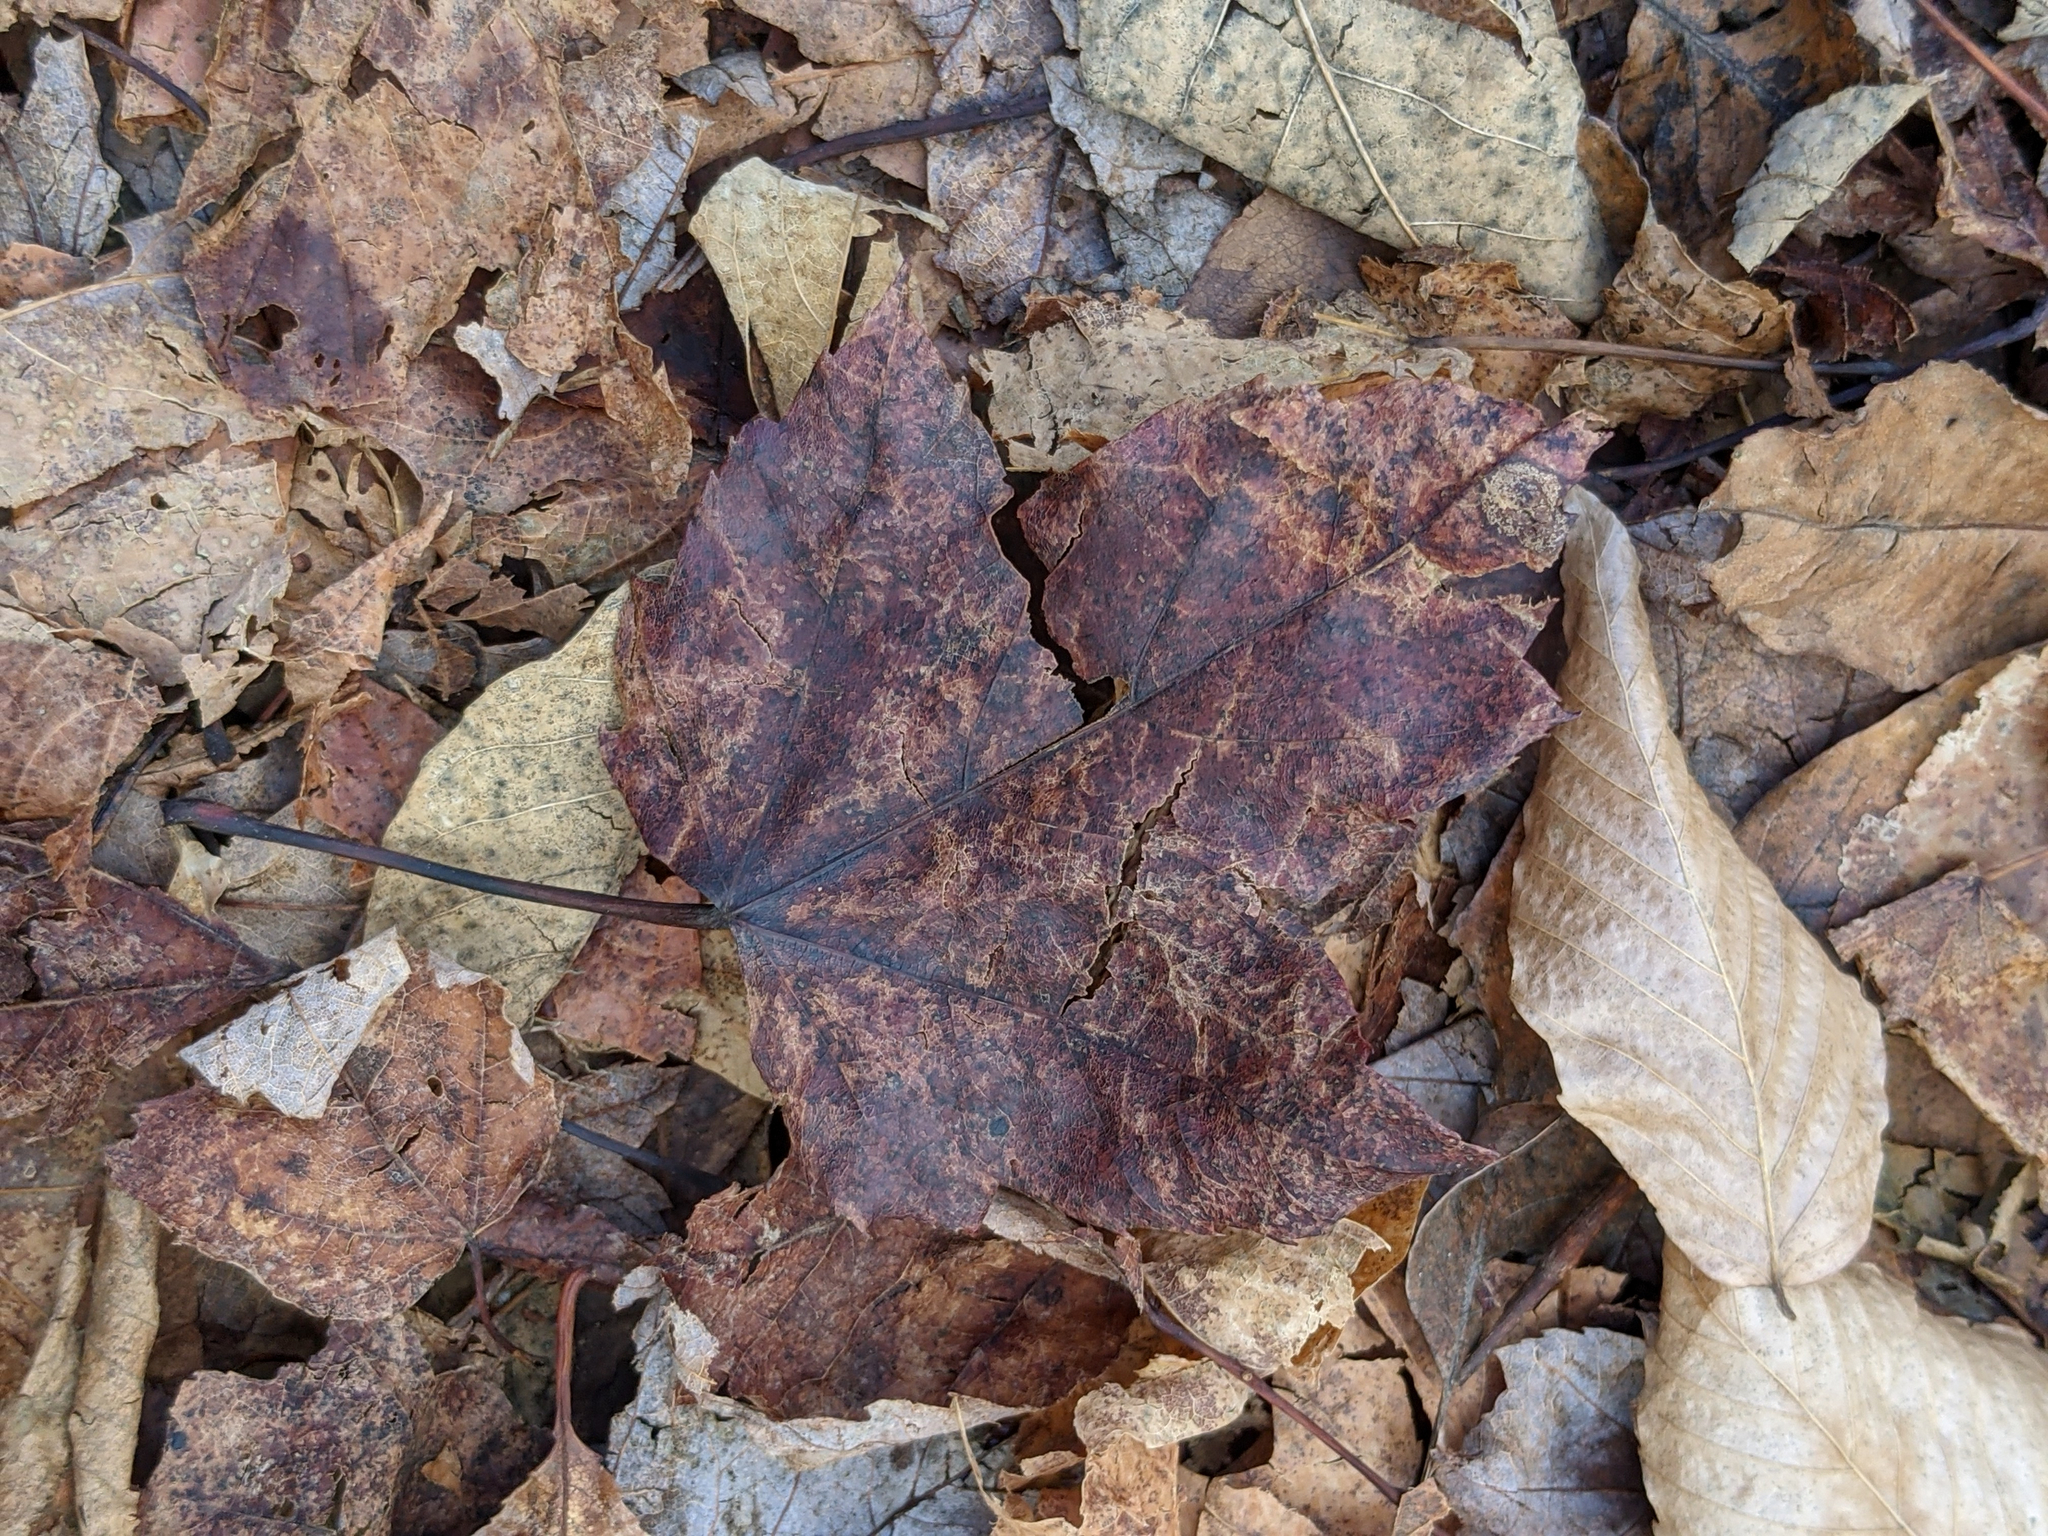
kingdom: Plantae
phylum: Tracheophyta
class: Magnoliopsida
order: Sapindales
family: Sapindaceae
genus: Acer
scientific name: Acer rubrum
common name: Red maple
